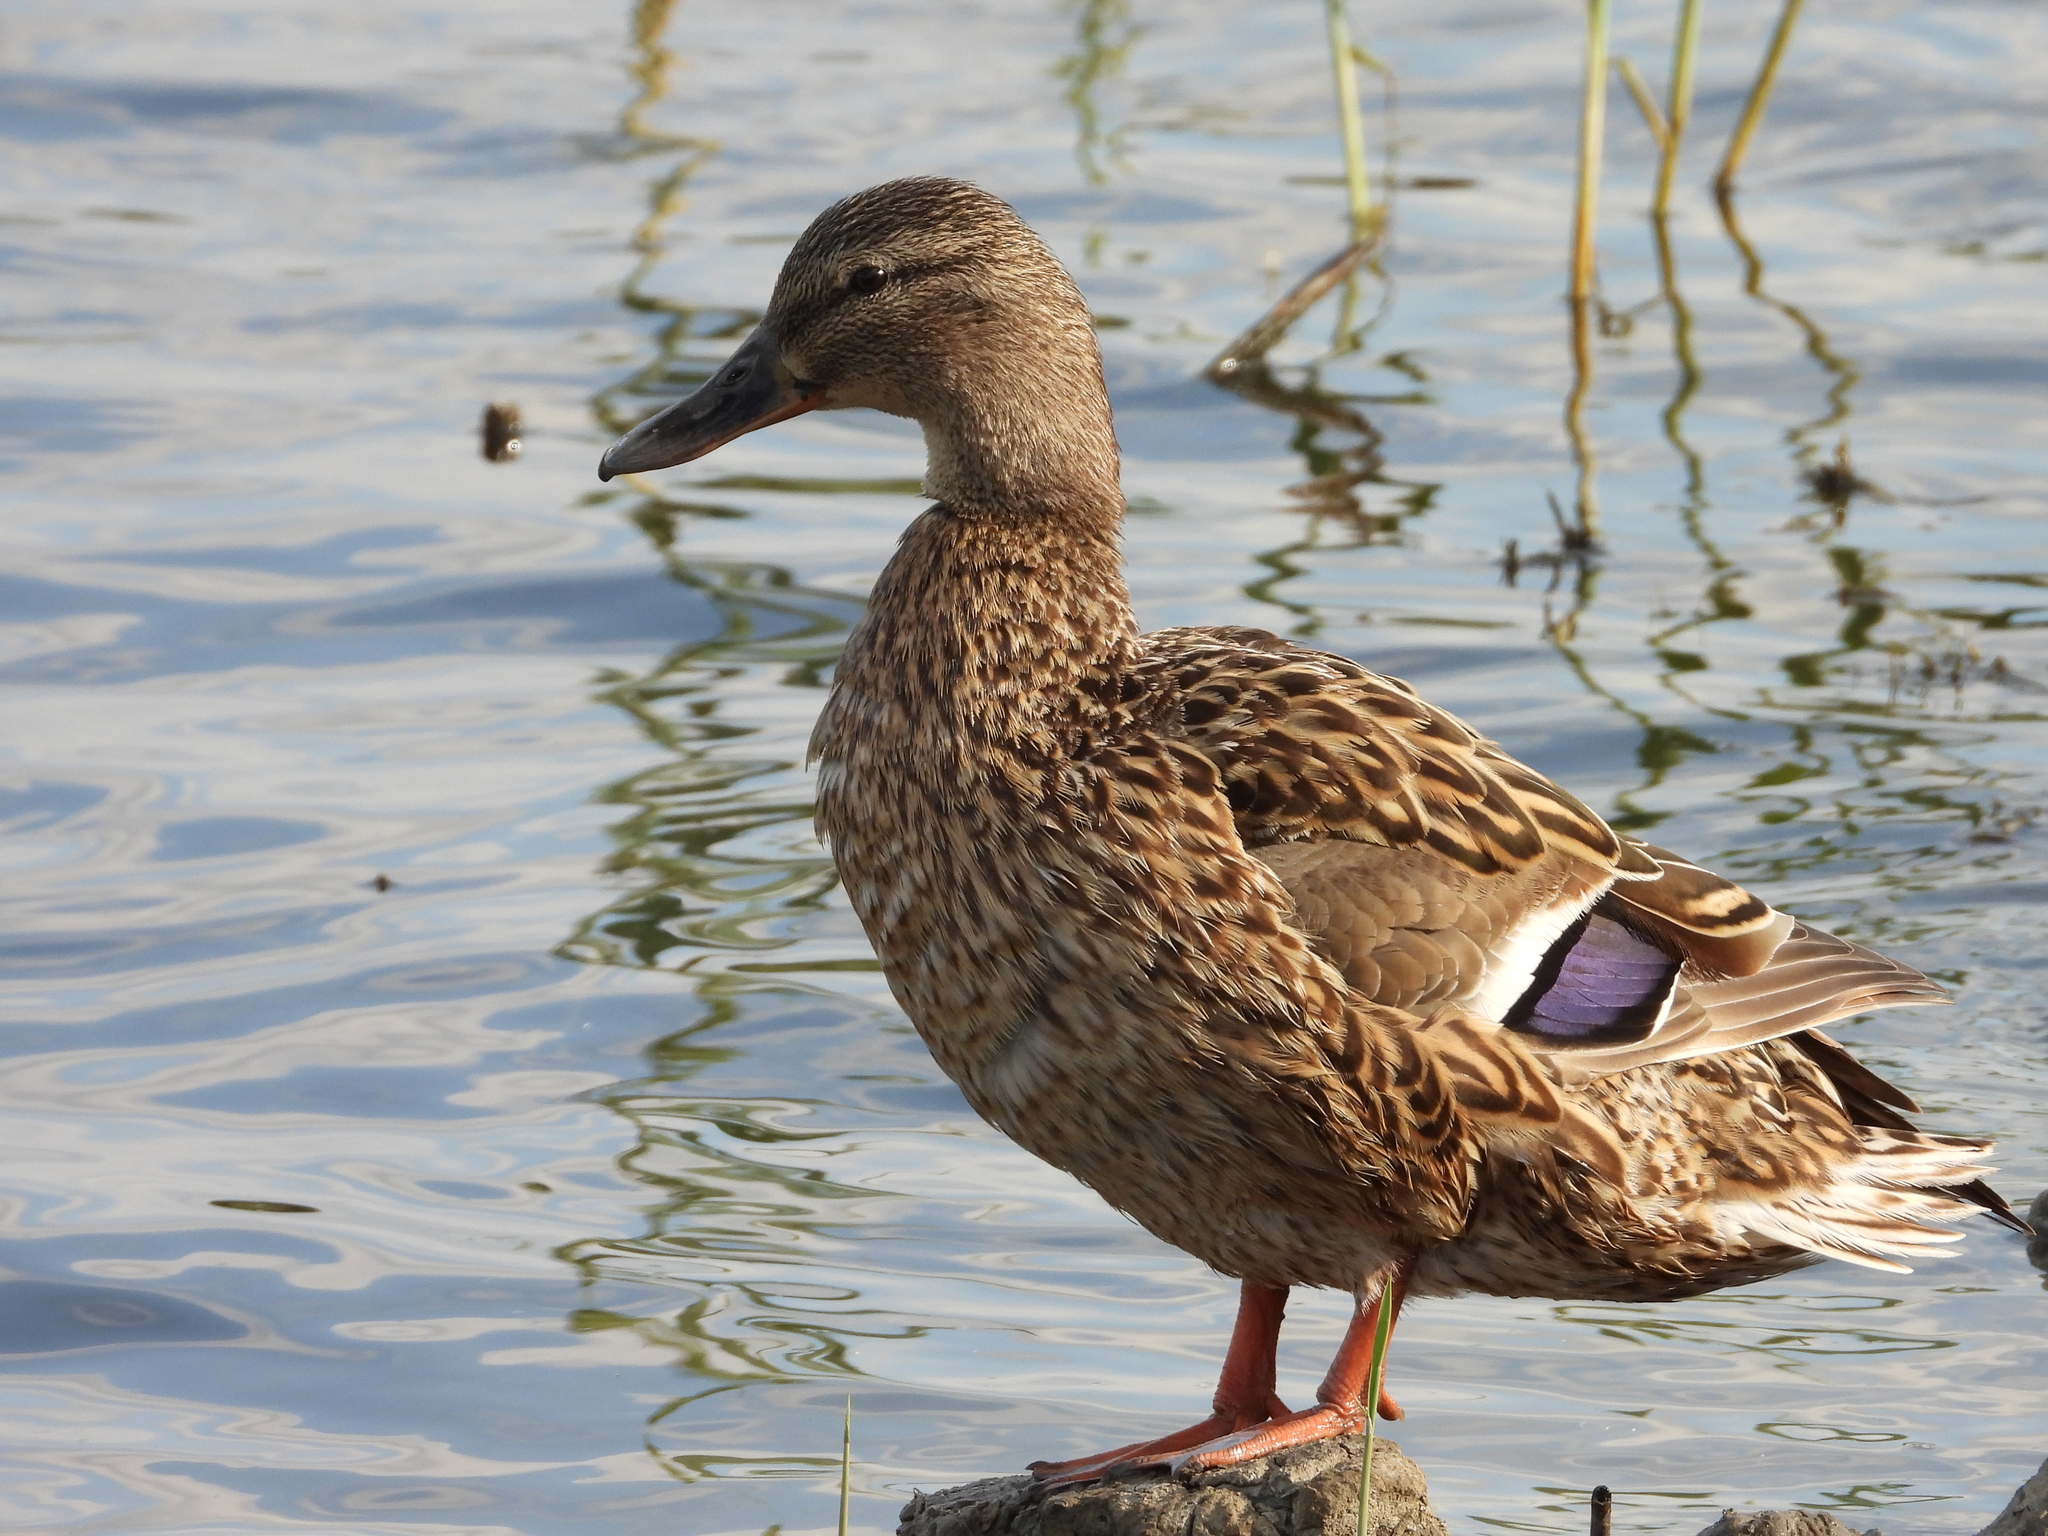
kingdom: Animalia
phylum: Chordata
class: Aves
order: Anseriformes
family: Anatidae
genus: Anas
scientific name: Anas platyrhynchos
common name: Mallard
